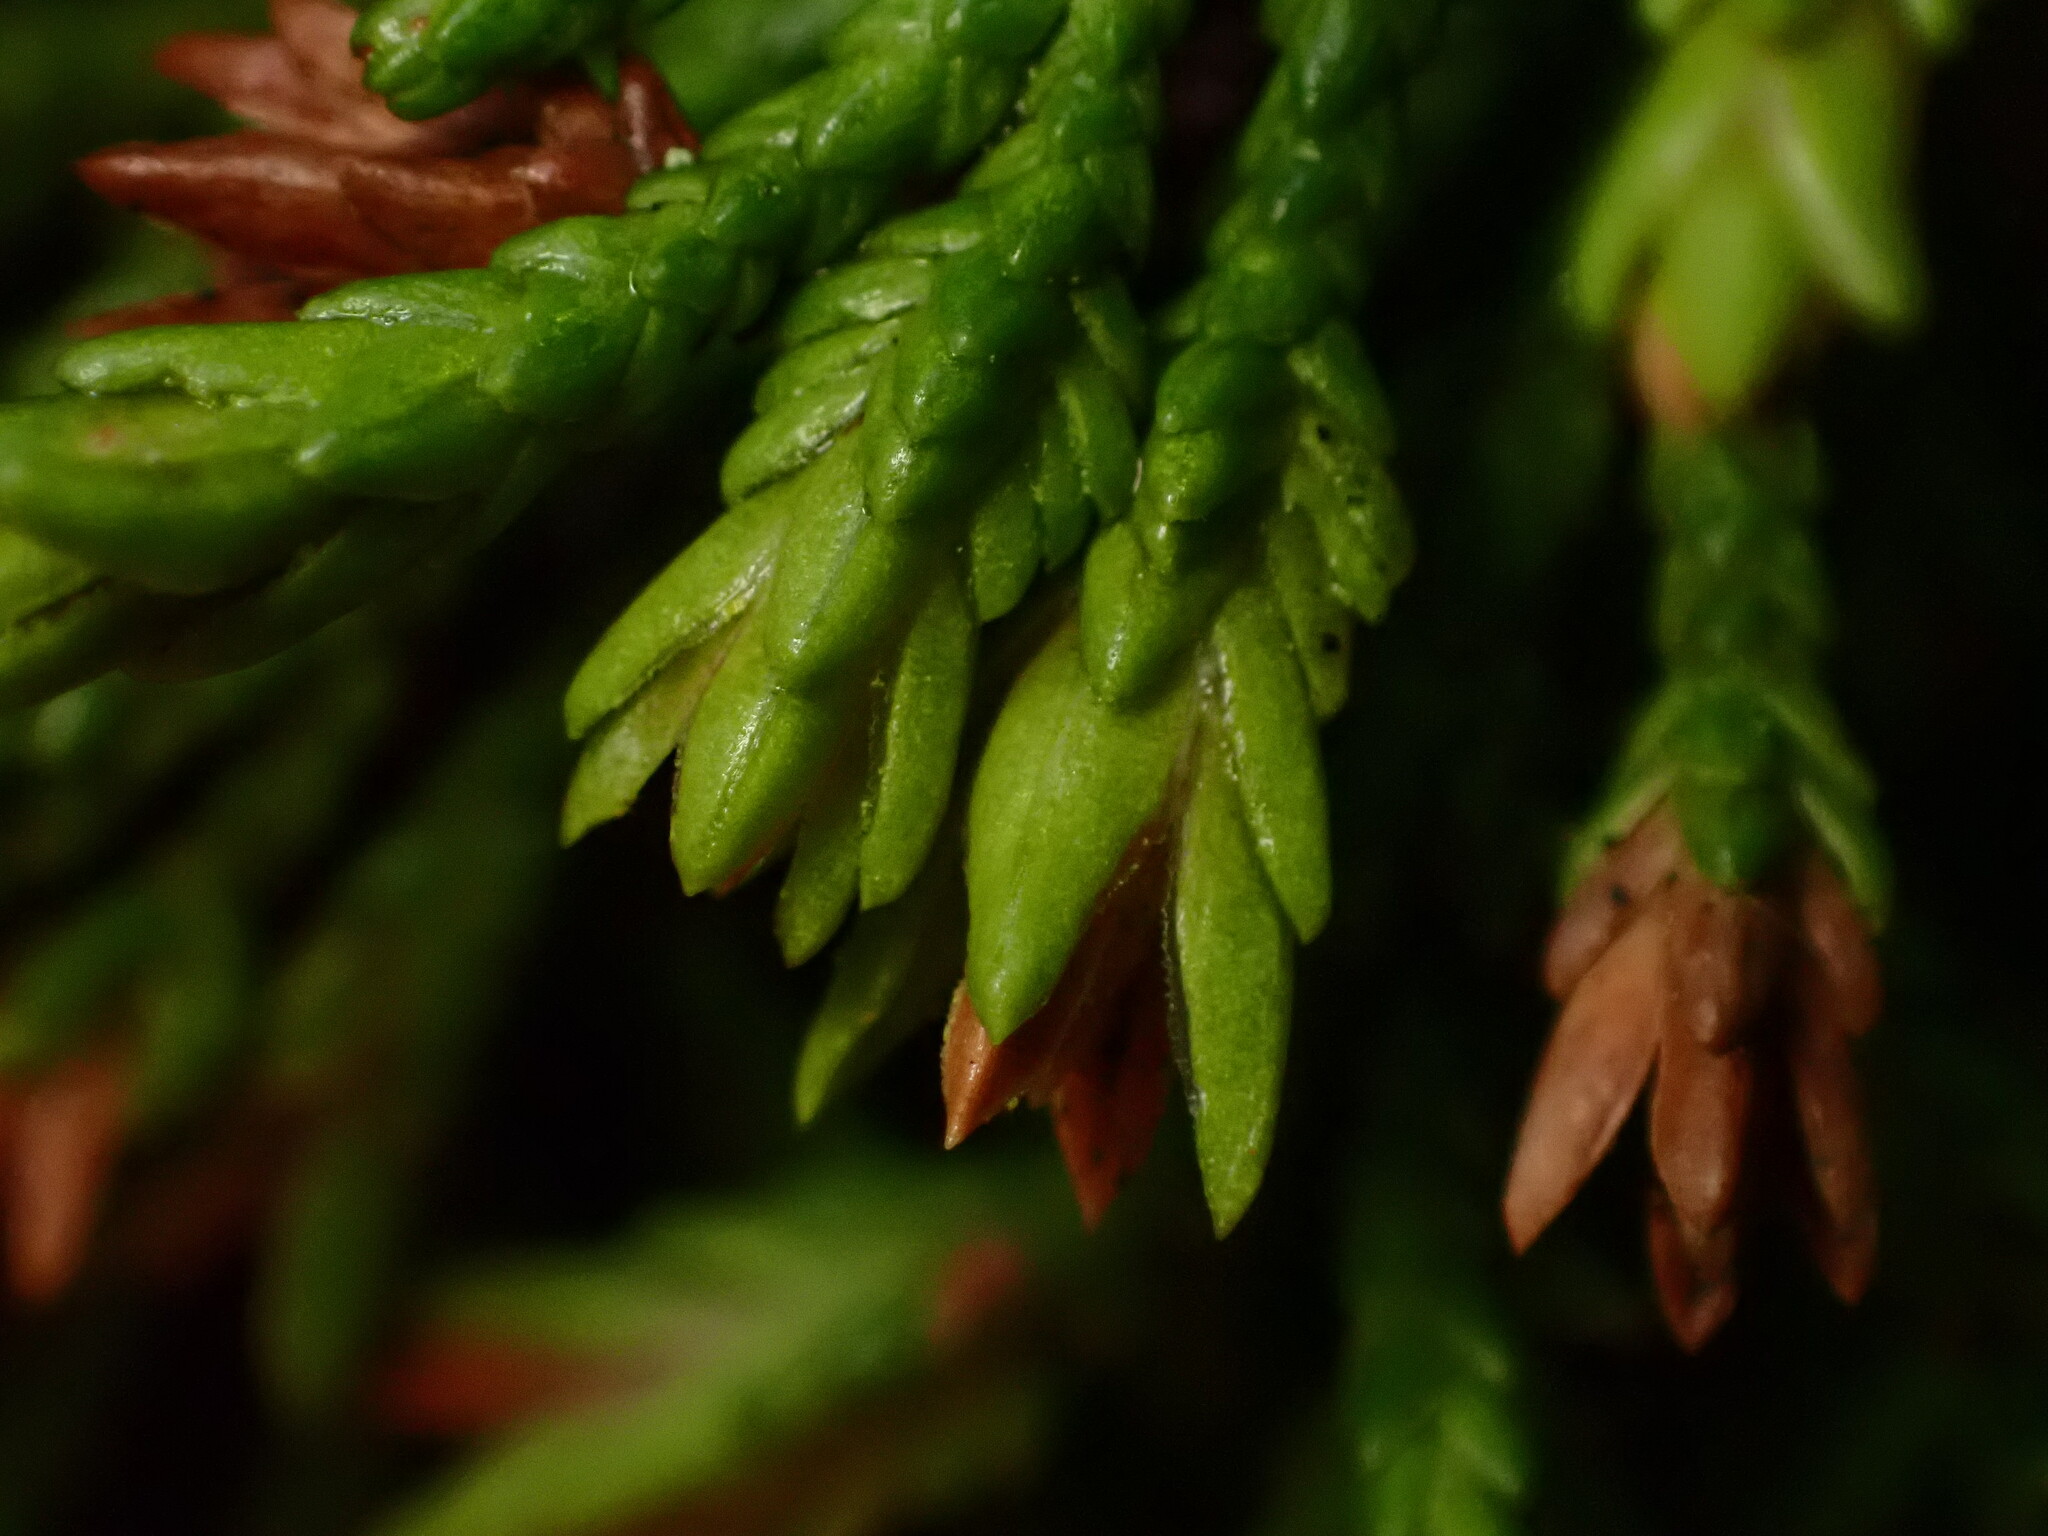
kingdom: Animalia
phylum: Arthropoda
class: Insecta
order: Diptera
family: Cecidomyiidae
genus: Oligotrophus
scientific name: Oligotrophus cupressi
